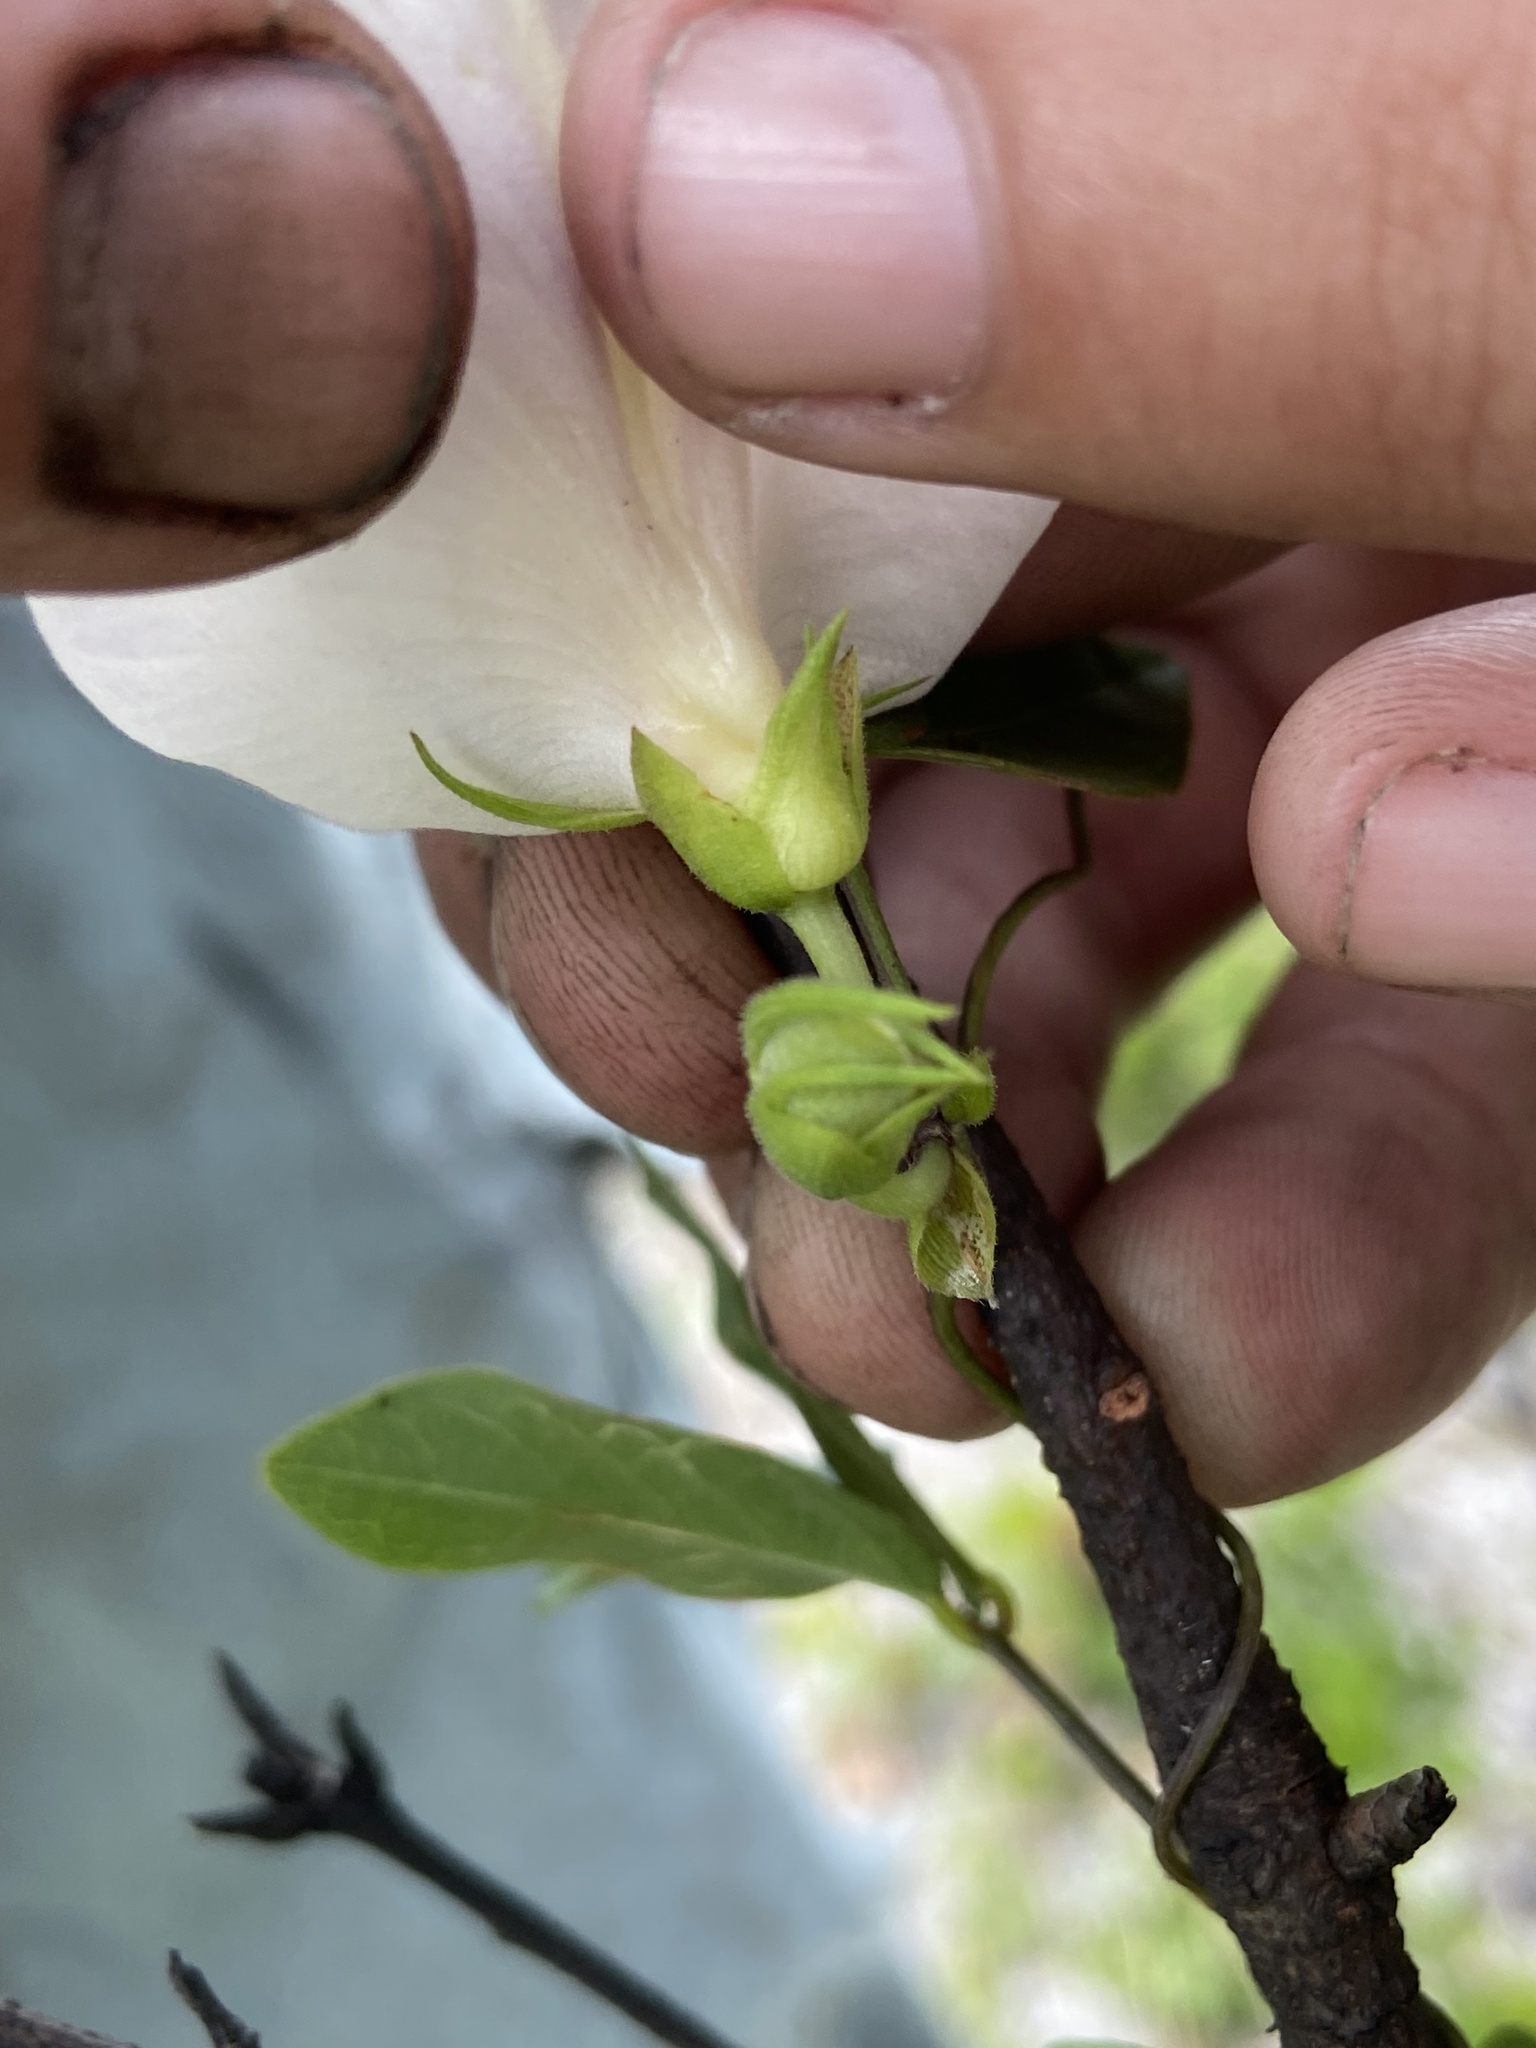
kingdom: Plantae
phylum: Tracheophyta
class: Magnoliopsida
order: Fabales
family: Fabaceae
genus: Centrosema
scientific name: Centrosema arenicola
